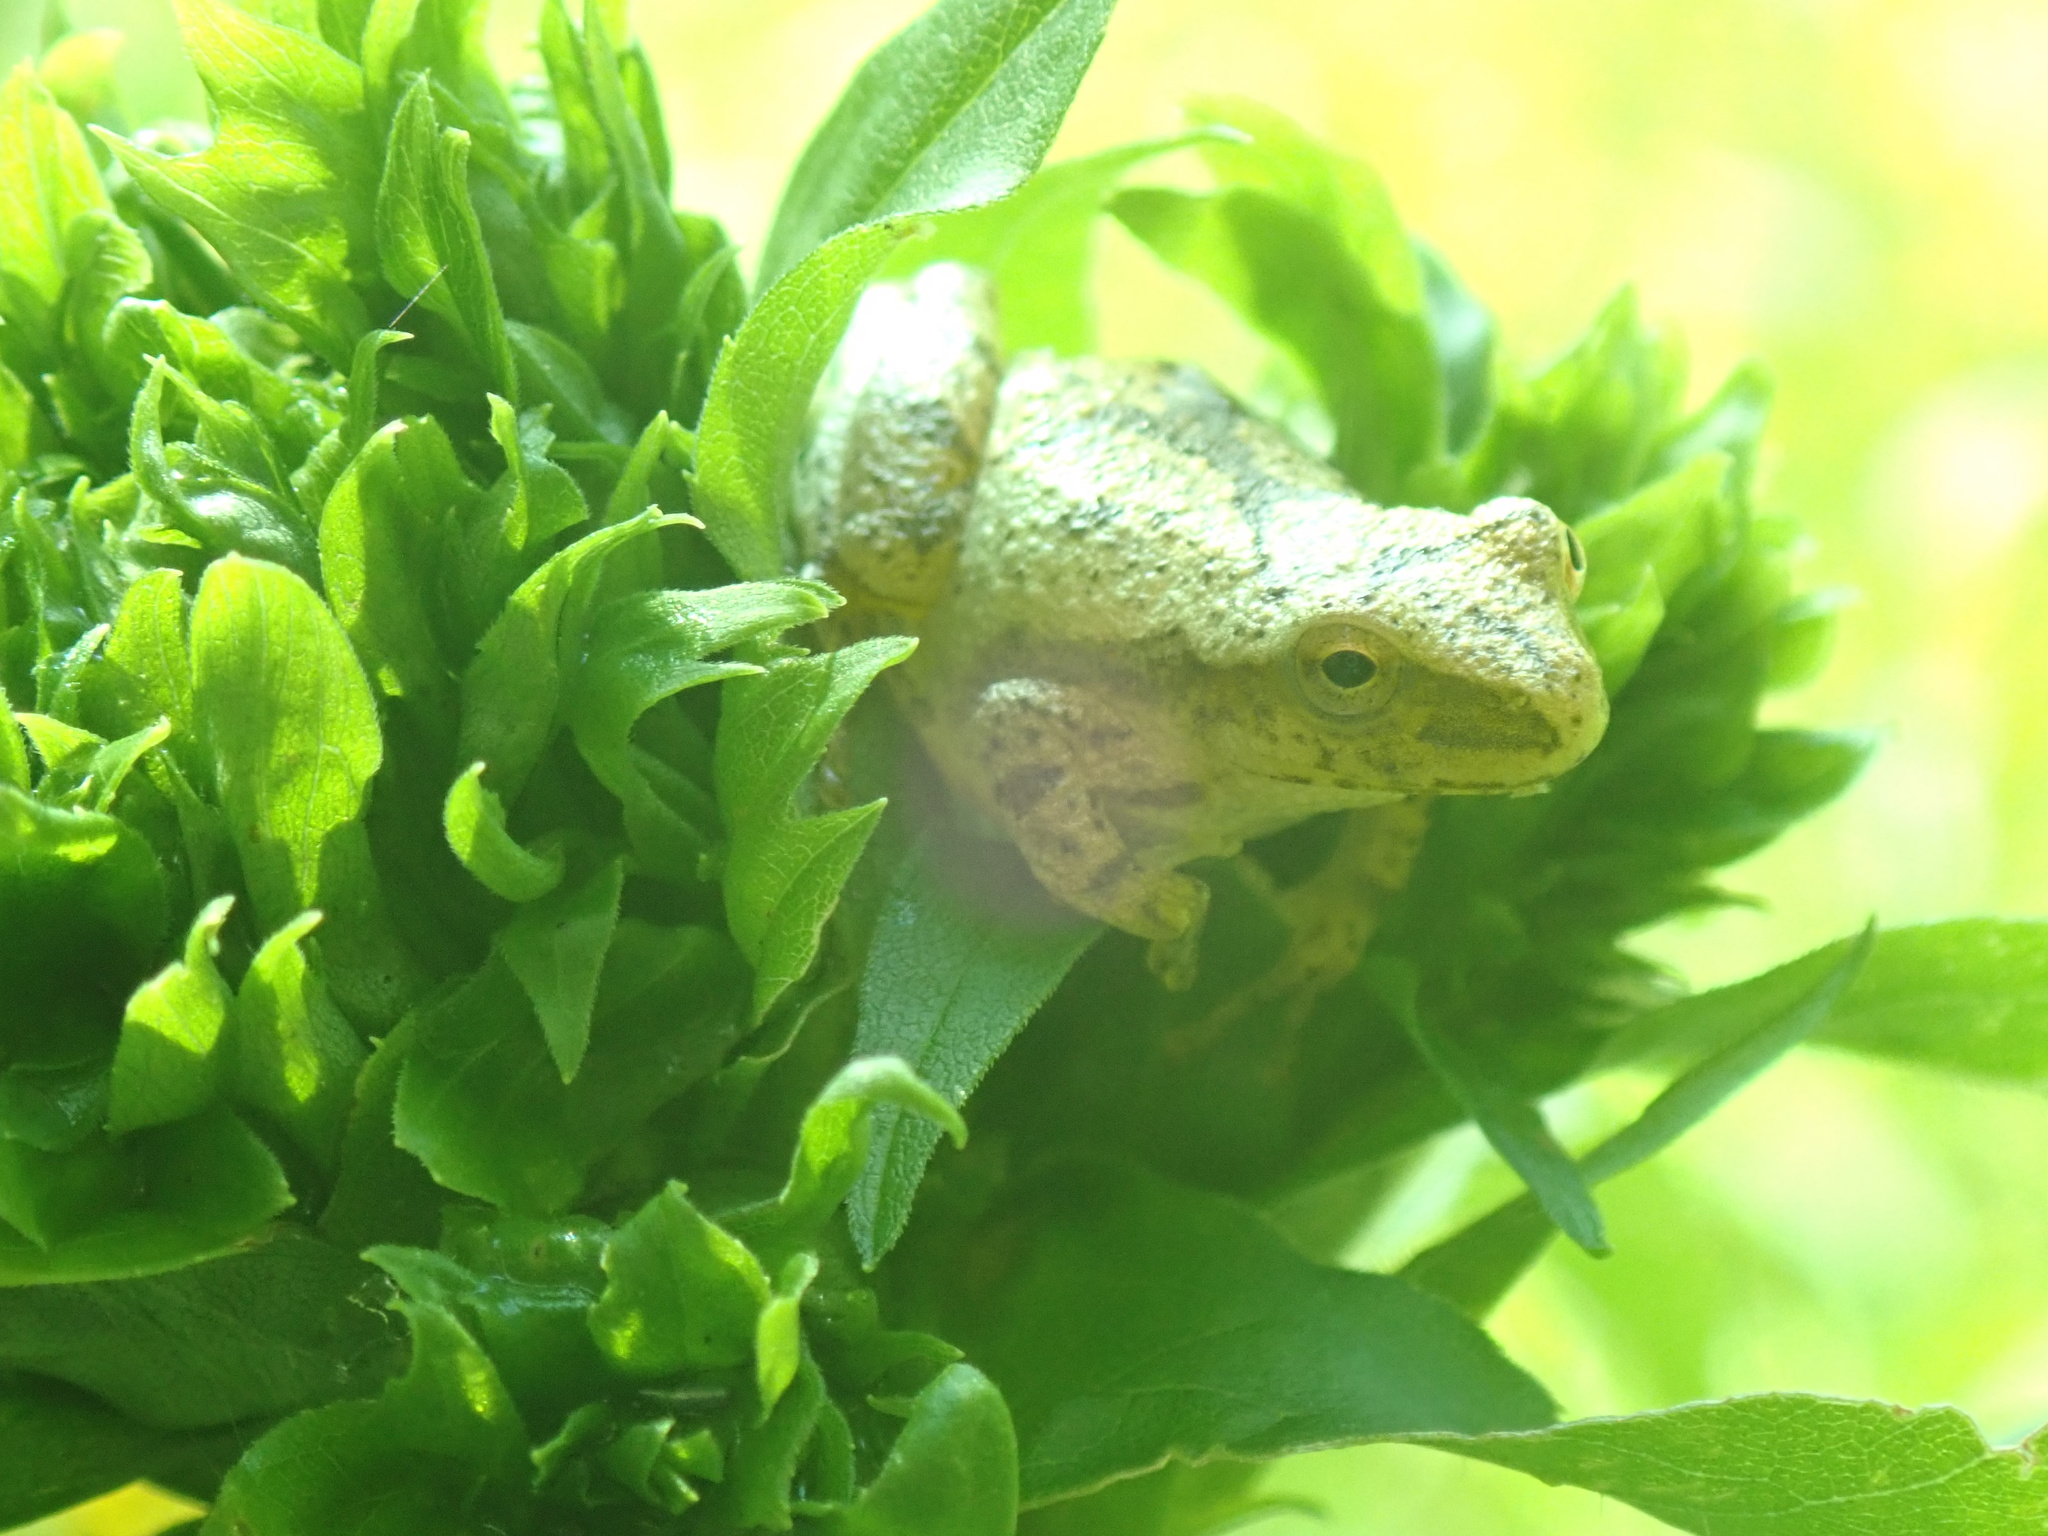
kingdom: Animalia
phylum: Chordata
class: Amphibia
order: Anura
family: Hylidae
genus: Pseudacris
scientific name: Pseudacris crucifer
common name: Spring peeper
